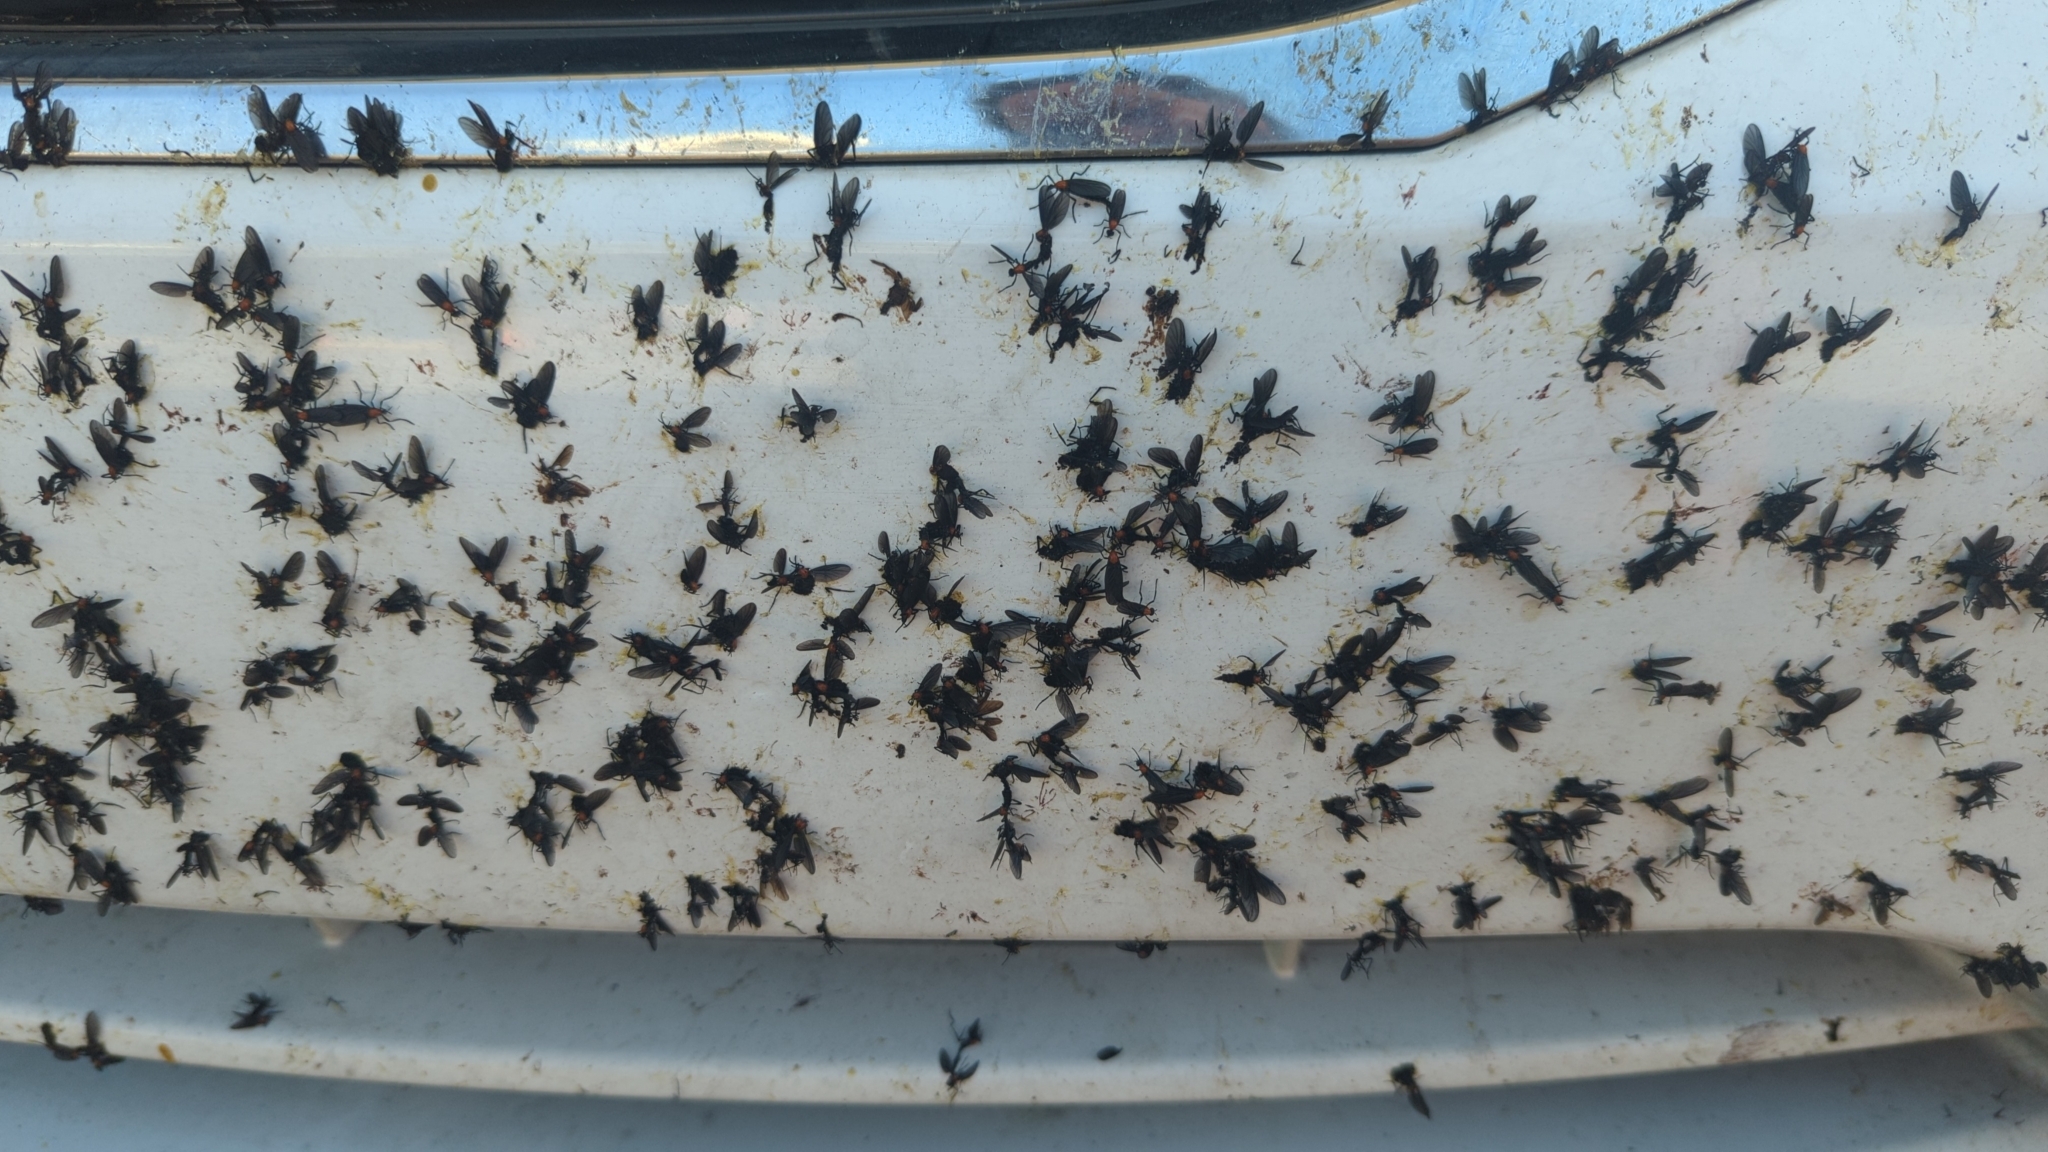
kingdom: Animalia
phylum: Arthropoda
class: Insecta
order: Diptera
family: Bibionidae
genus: Plecia
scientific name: Plecia nearctica
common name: March fly
